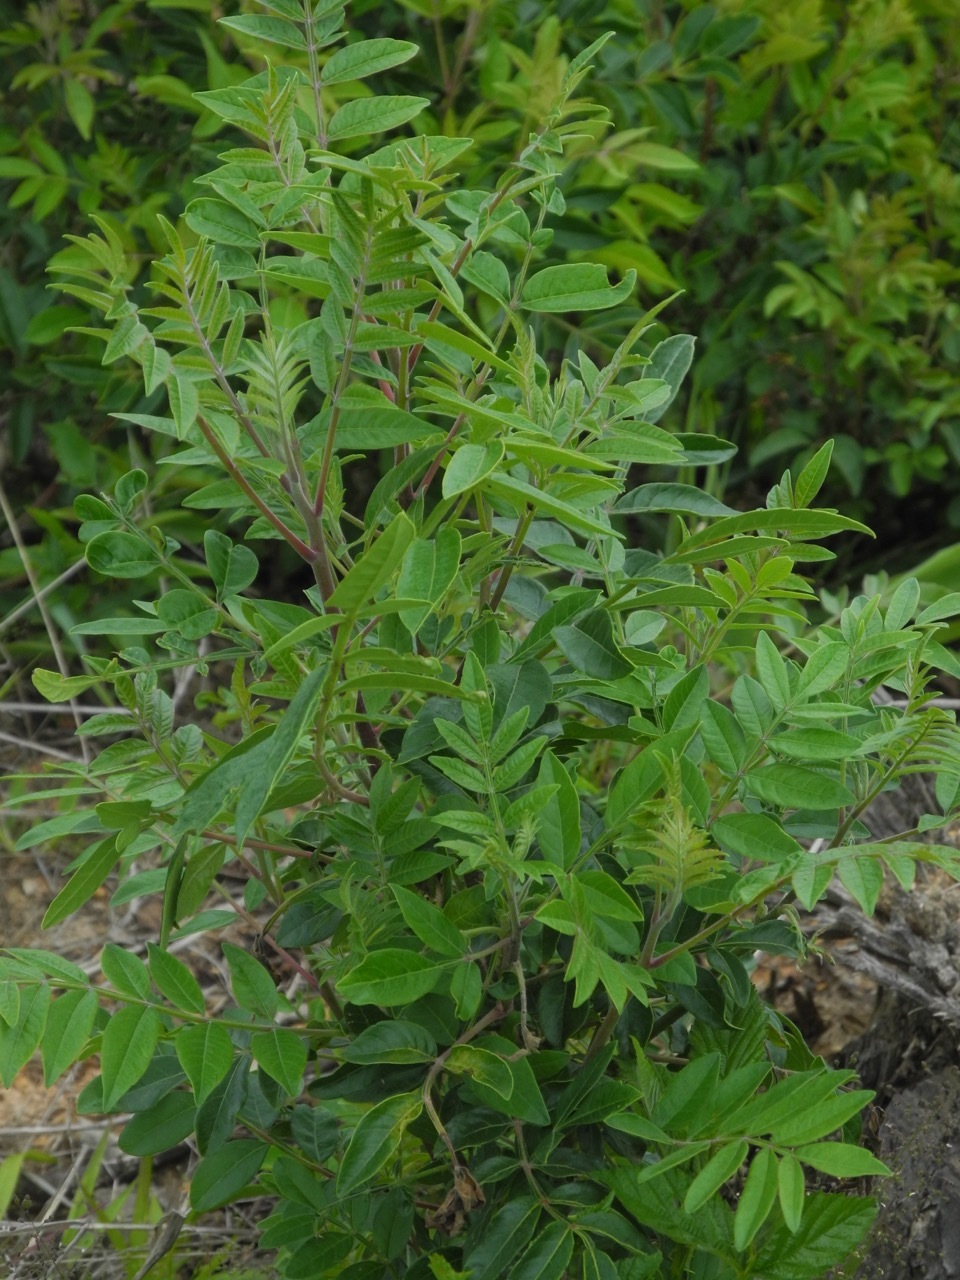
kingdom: Plantae
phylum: Tracheophyta
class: Magnoliopsida
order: Sapindales
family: Anacardiaceae
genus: Rhus
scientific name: Rhus copallina
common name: Shining sumac
